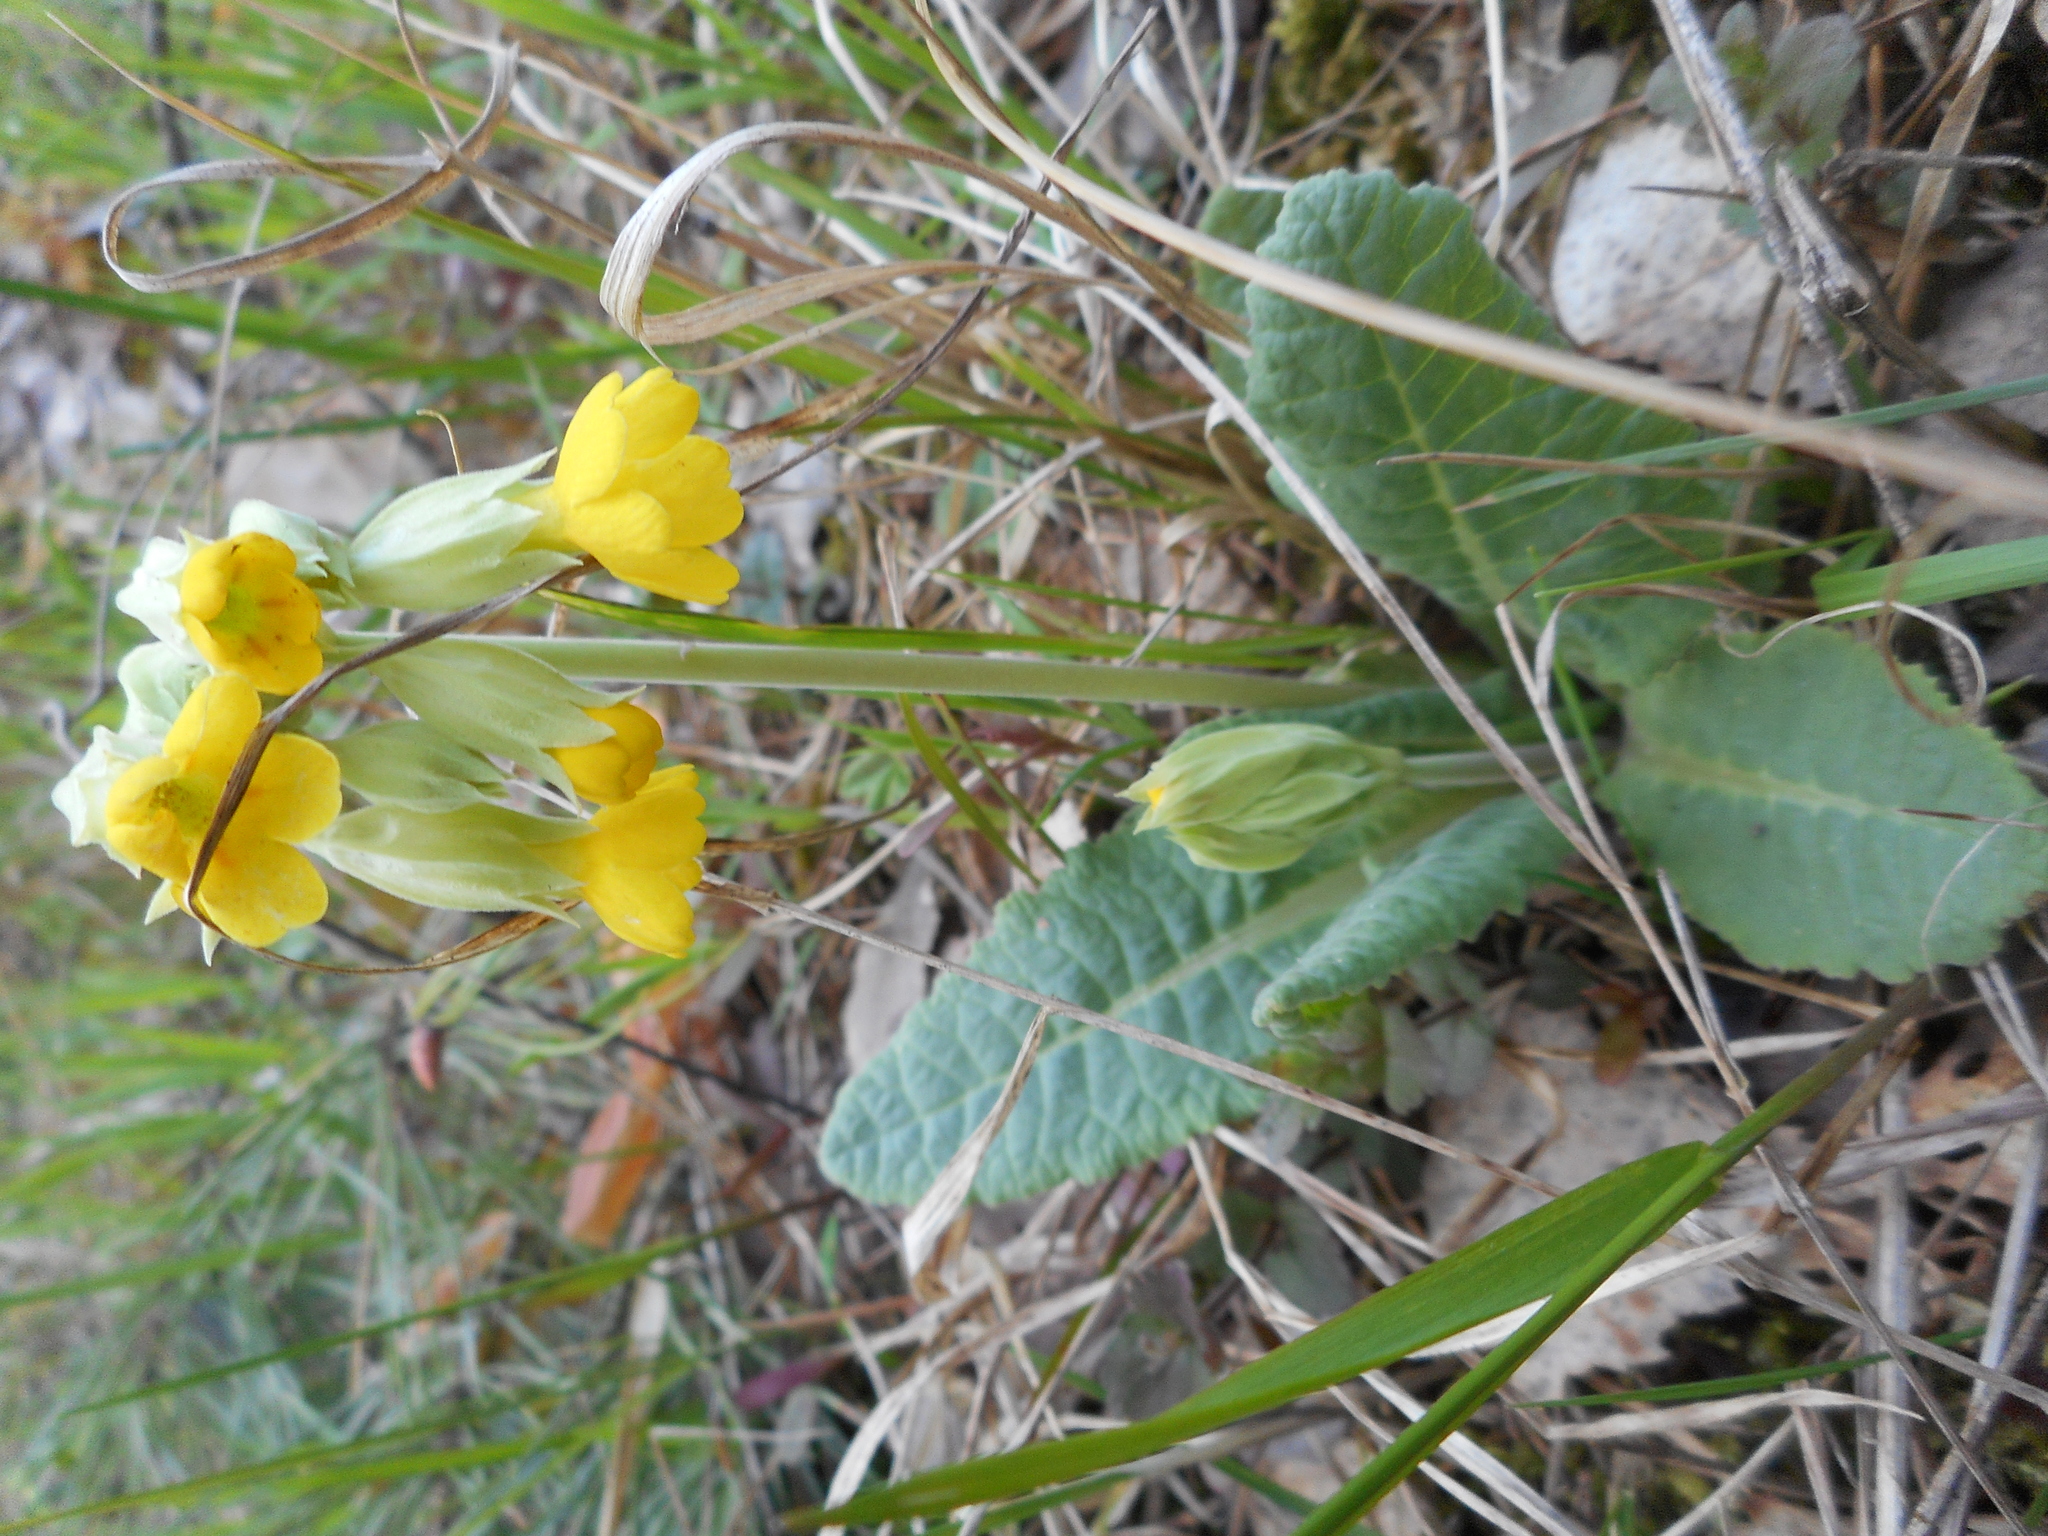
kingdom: Plantae
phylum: Tracheophyta
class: Magnoliopsida
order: Ericales
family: Primulaceae
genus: Primula
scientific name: Primula veris
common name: Cowslip
